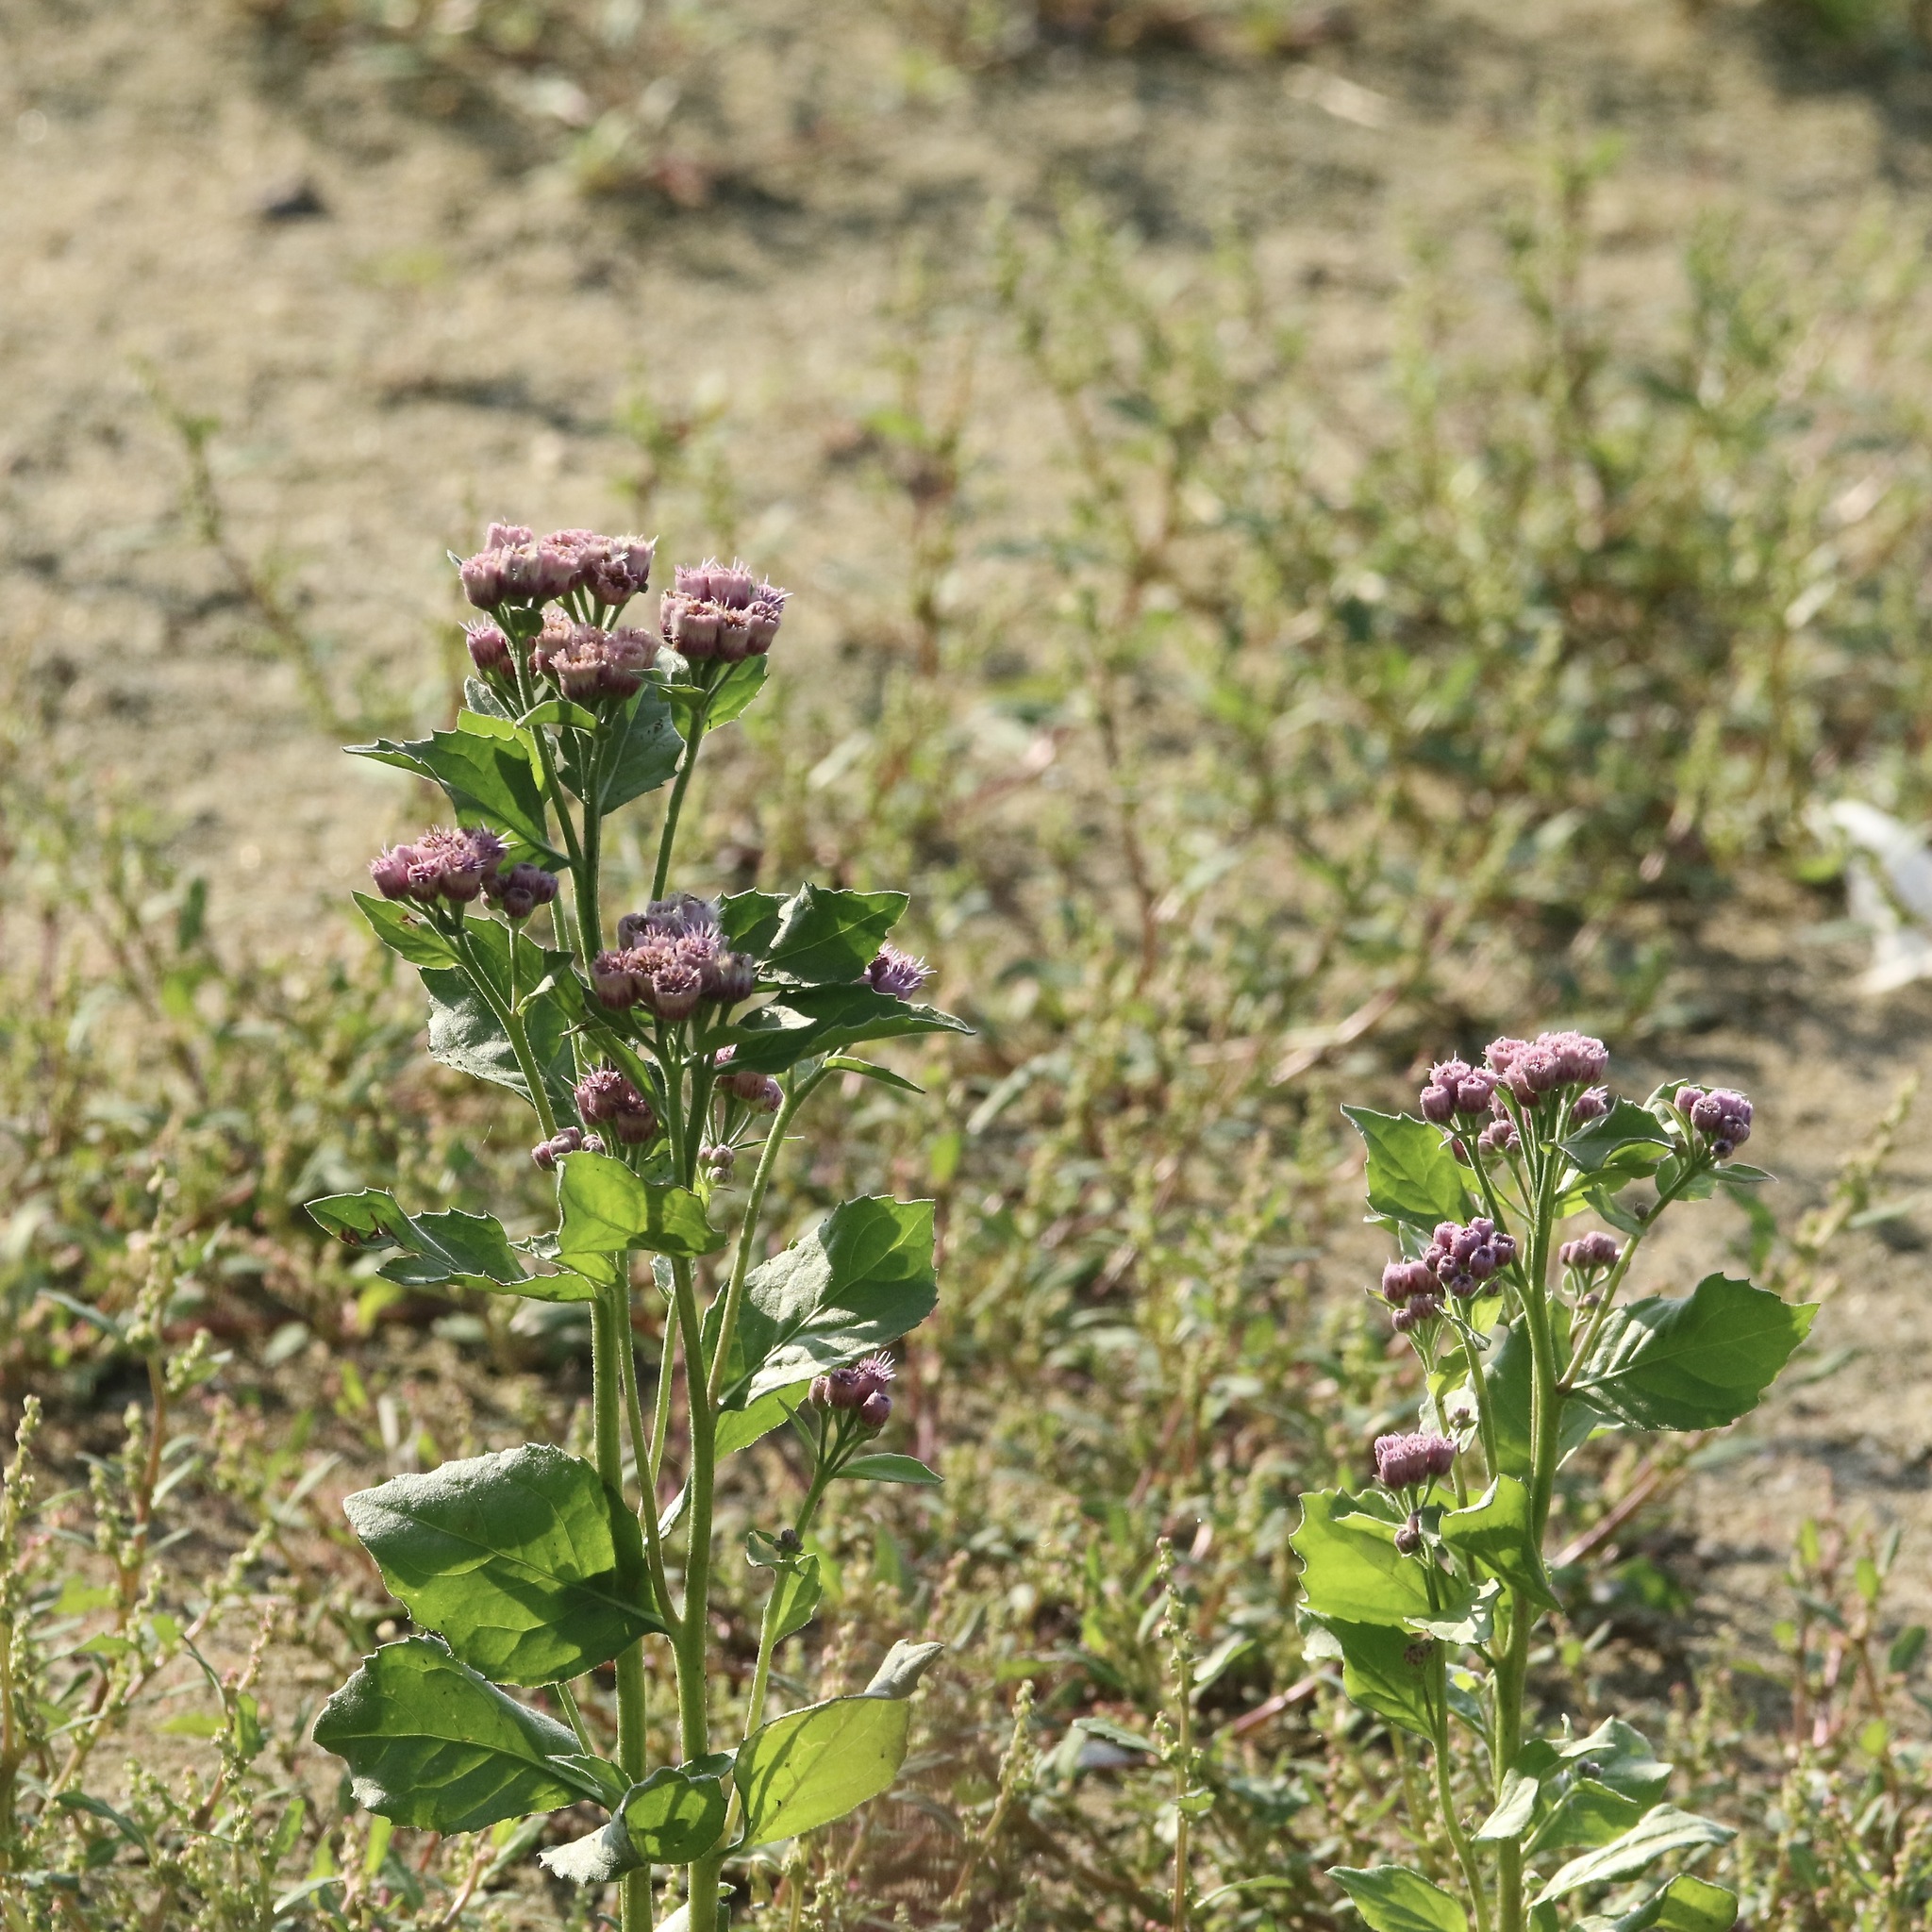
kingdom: Plantae
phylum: Tracheophyta
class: Magnoliopsida
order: Asterales
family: Asteraceae
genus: Pluchea
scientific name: Pluchea odorata
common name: Saltmarsh fleabane
